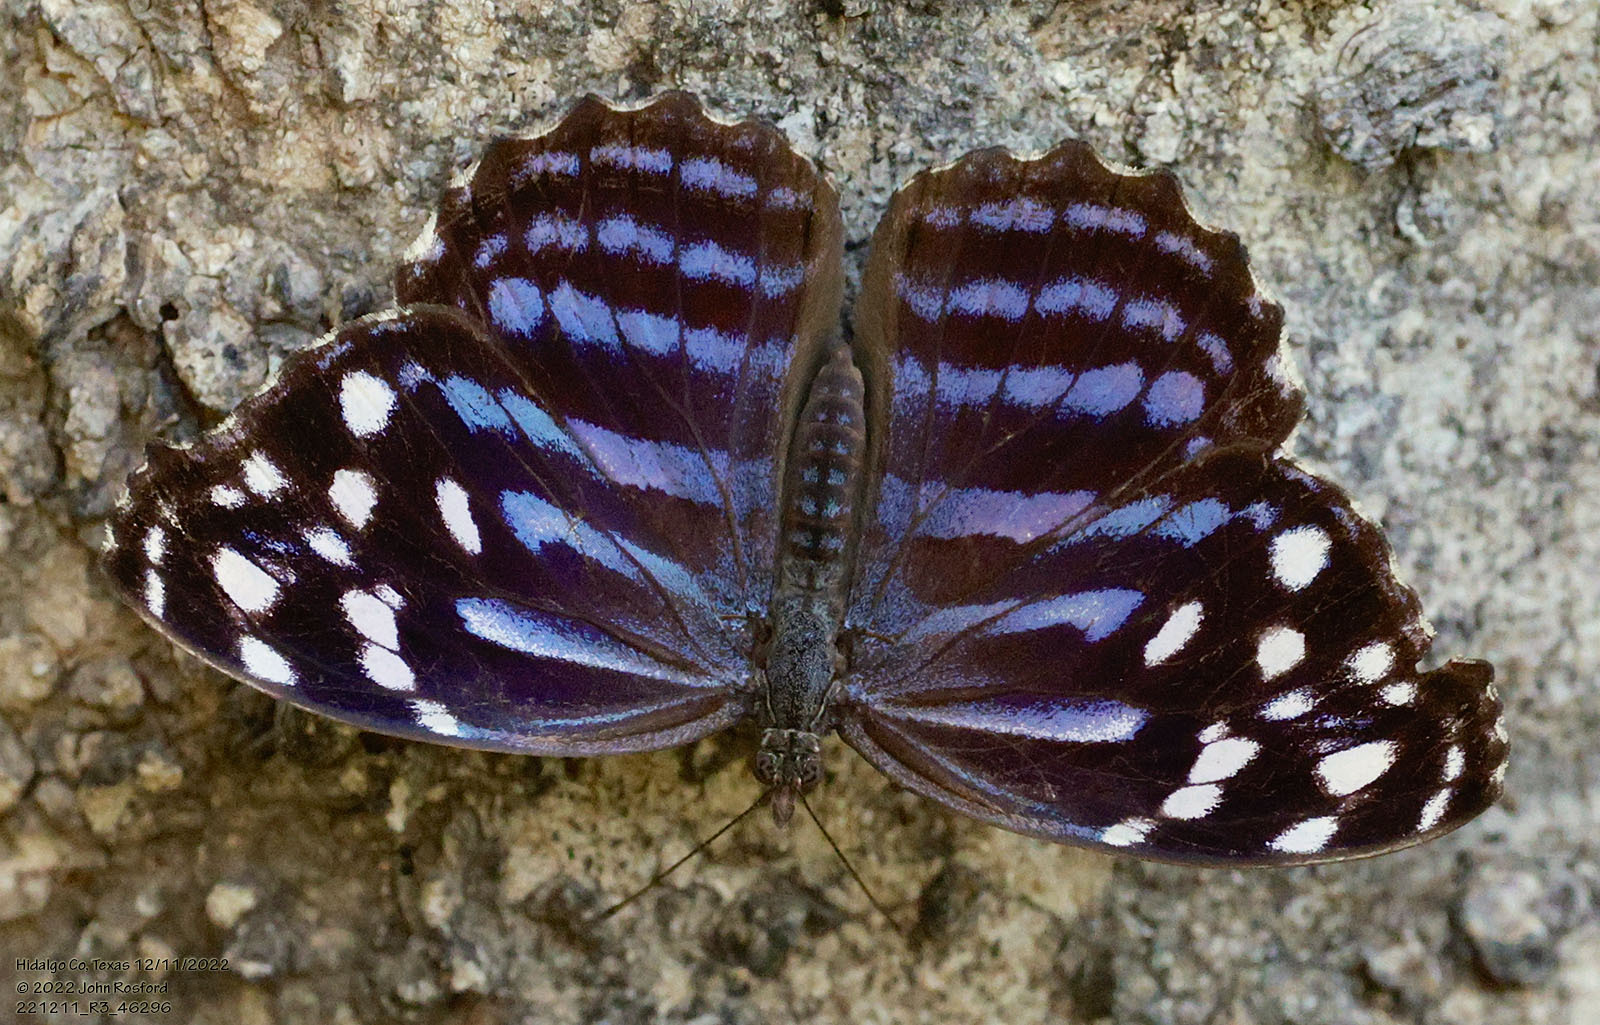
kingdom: Animalia
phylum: Arthropoda
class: Insecta
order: Lepidoptera
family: Nymphalidae
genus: Myscelia
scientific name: Myscelia ethusa
